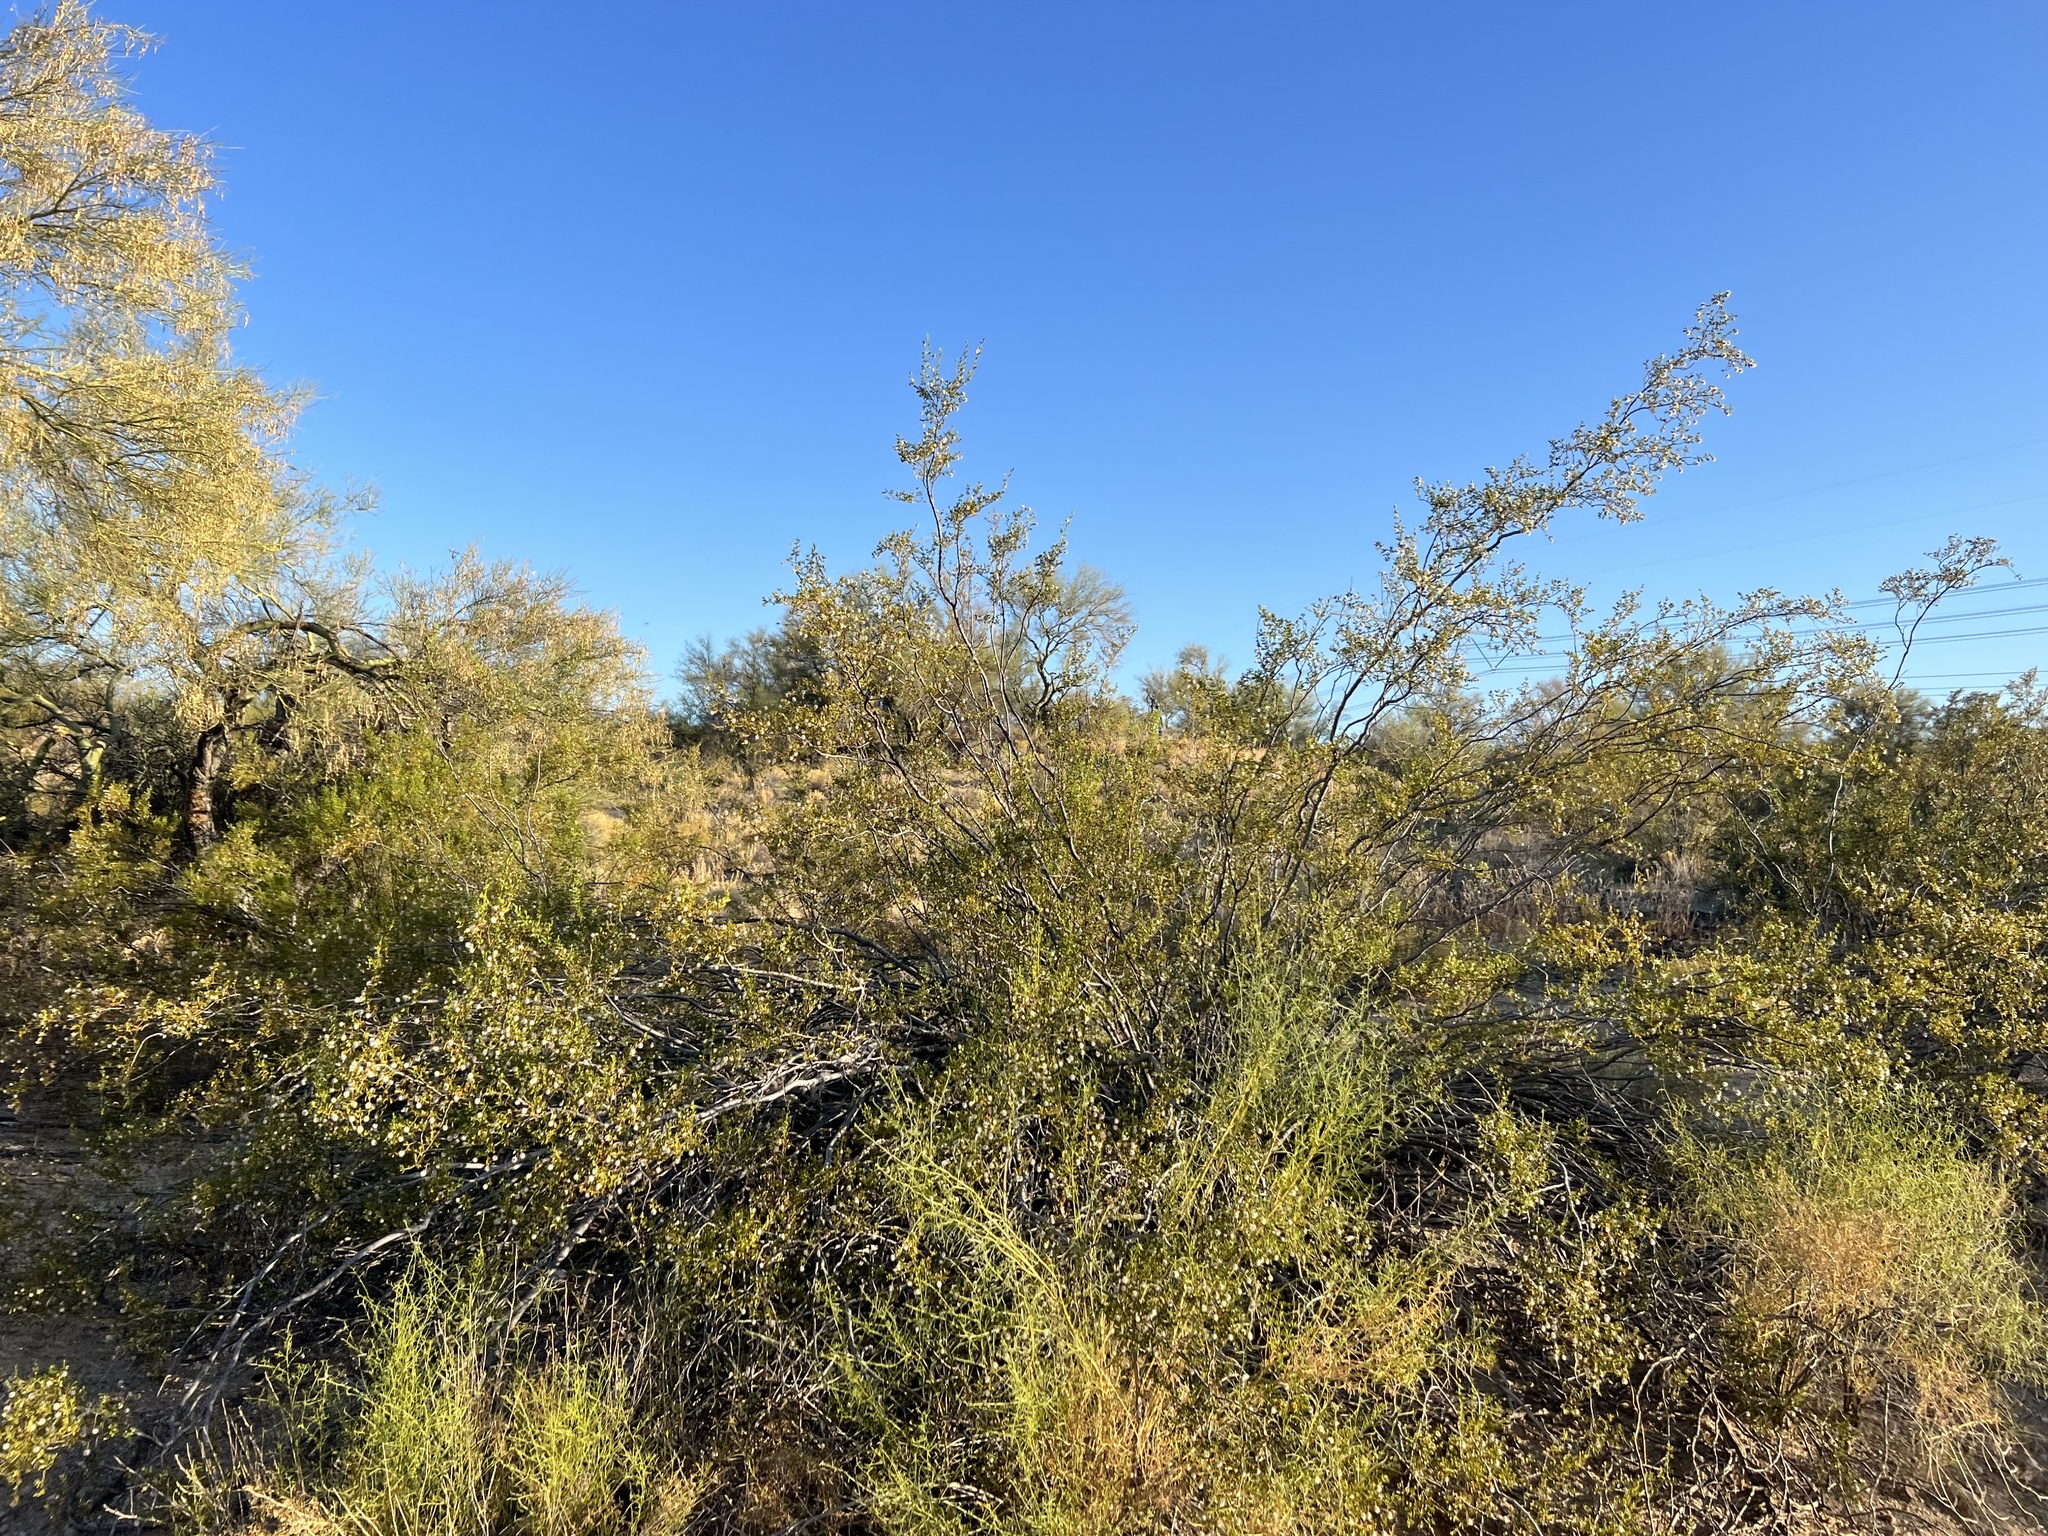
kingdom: Plantae
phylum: Tracheophyta
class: Magnoliopsida
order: Zygophyllales
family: Zygophyllaceae
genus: Larrea
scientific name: Larrea tridentata
